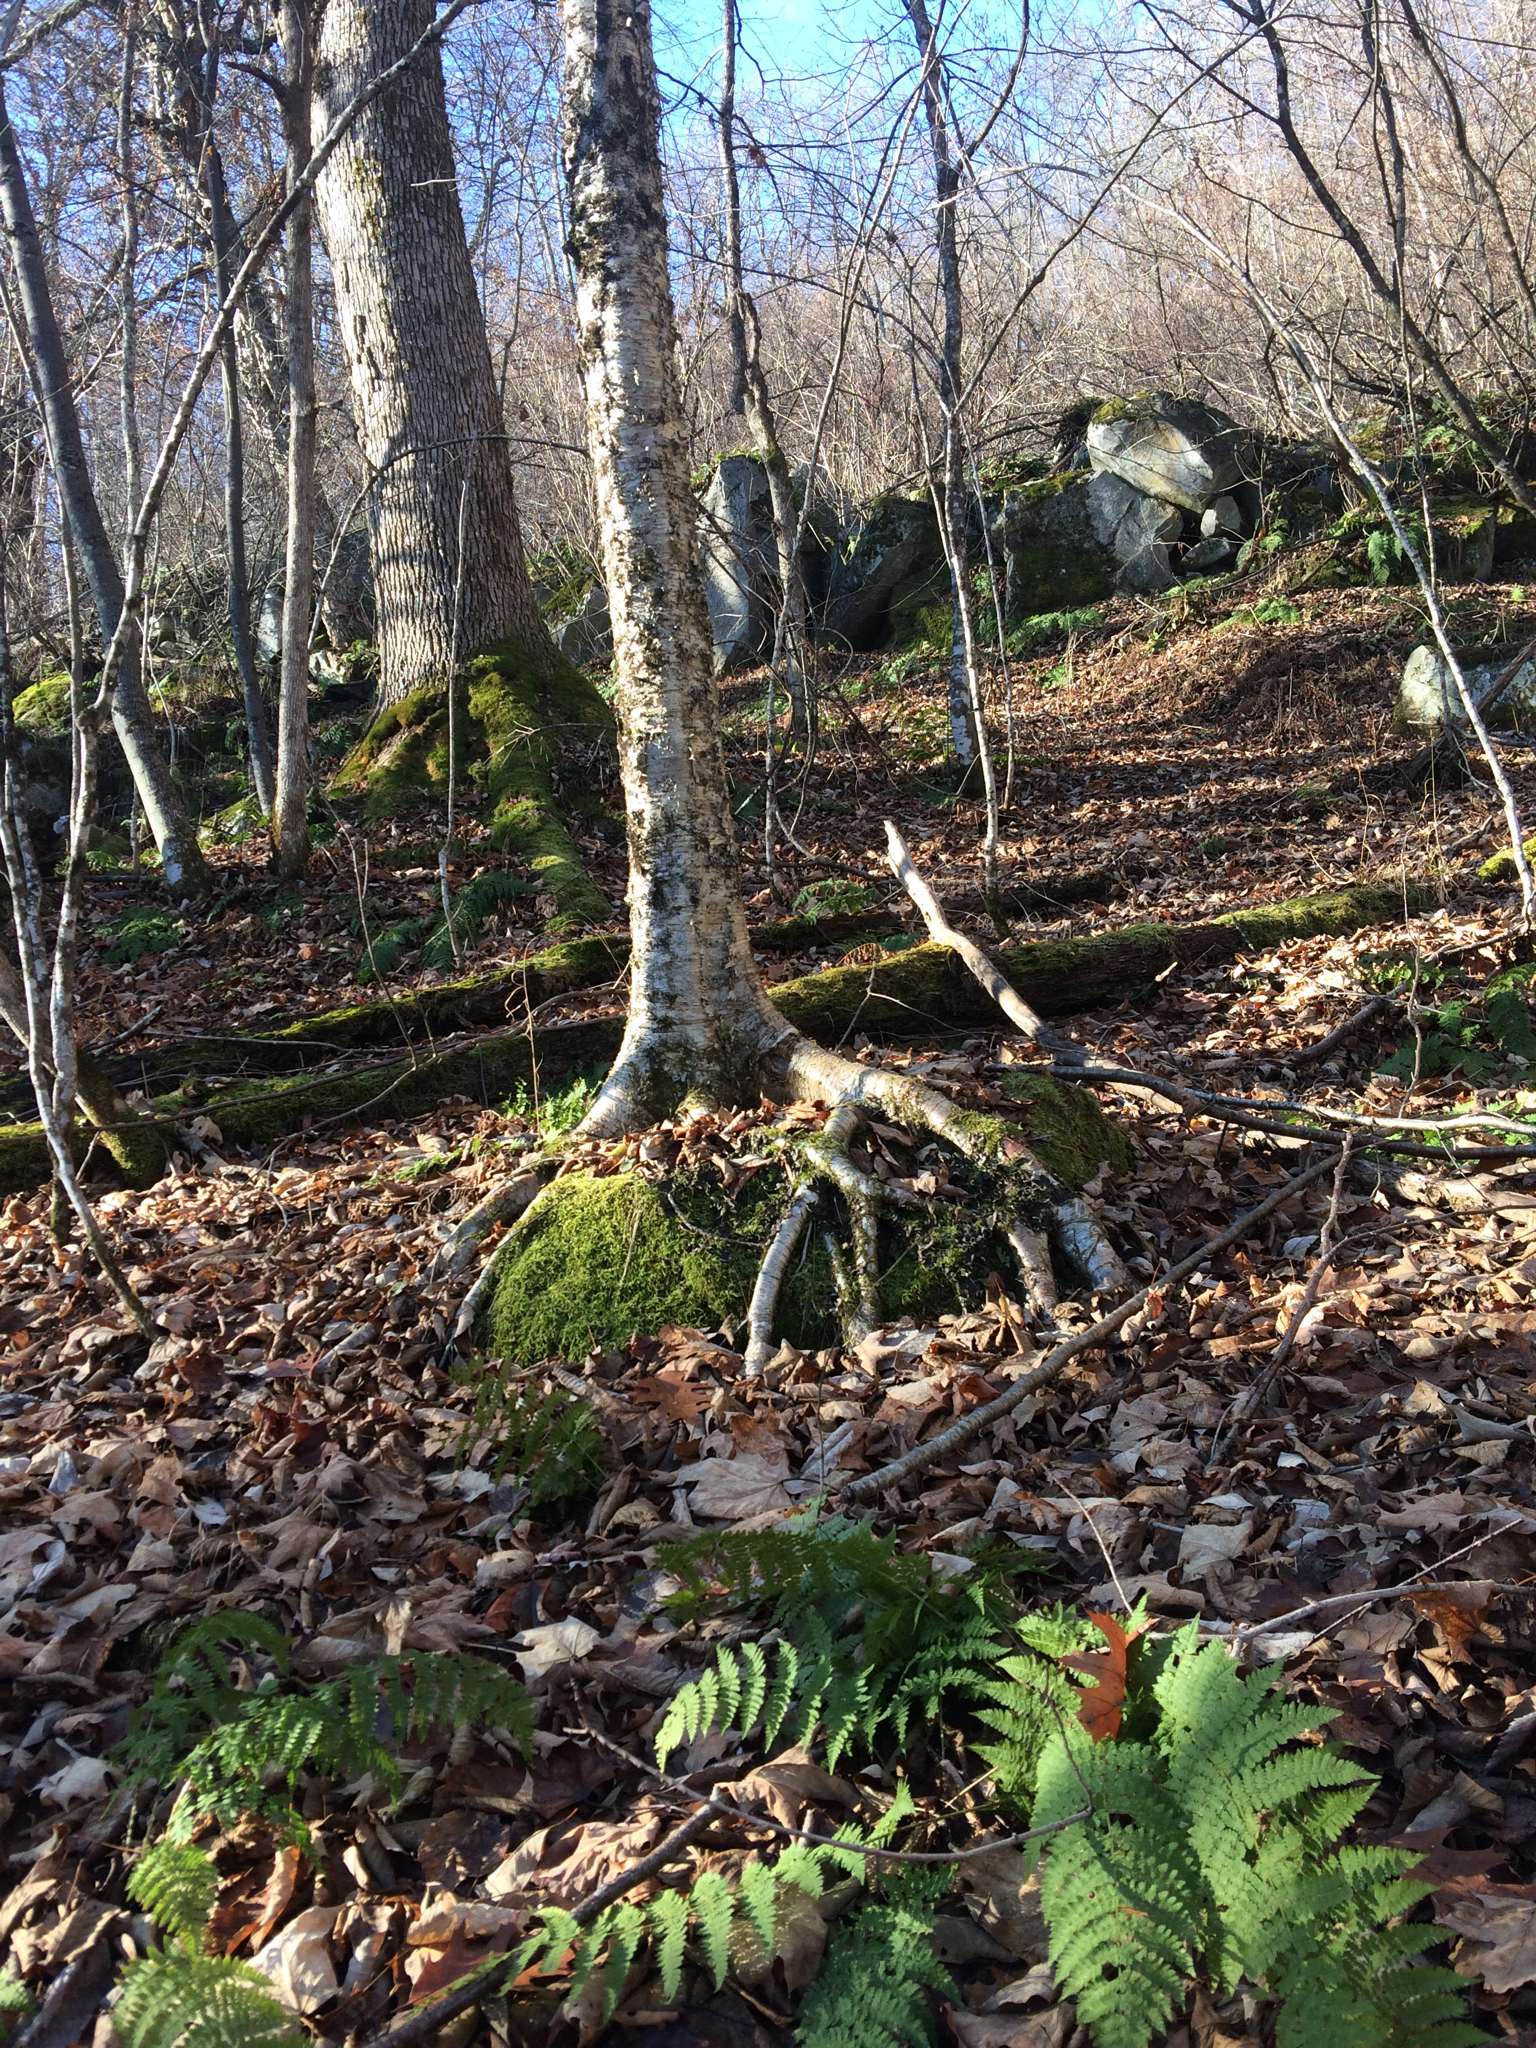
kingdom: Plantae
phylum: Tracheophyta
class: Magnoliopsida
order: Fagales
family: Betulaceae
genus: Betula
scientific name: Betula alleghaniensis
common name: Yellow birch
